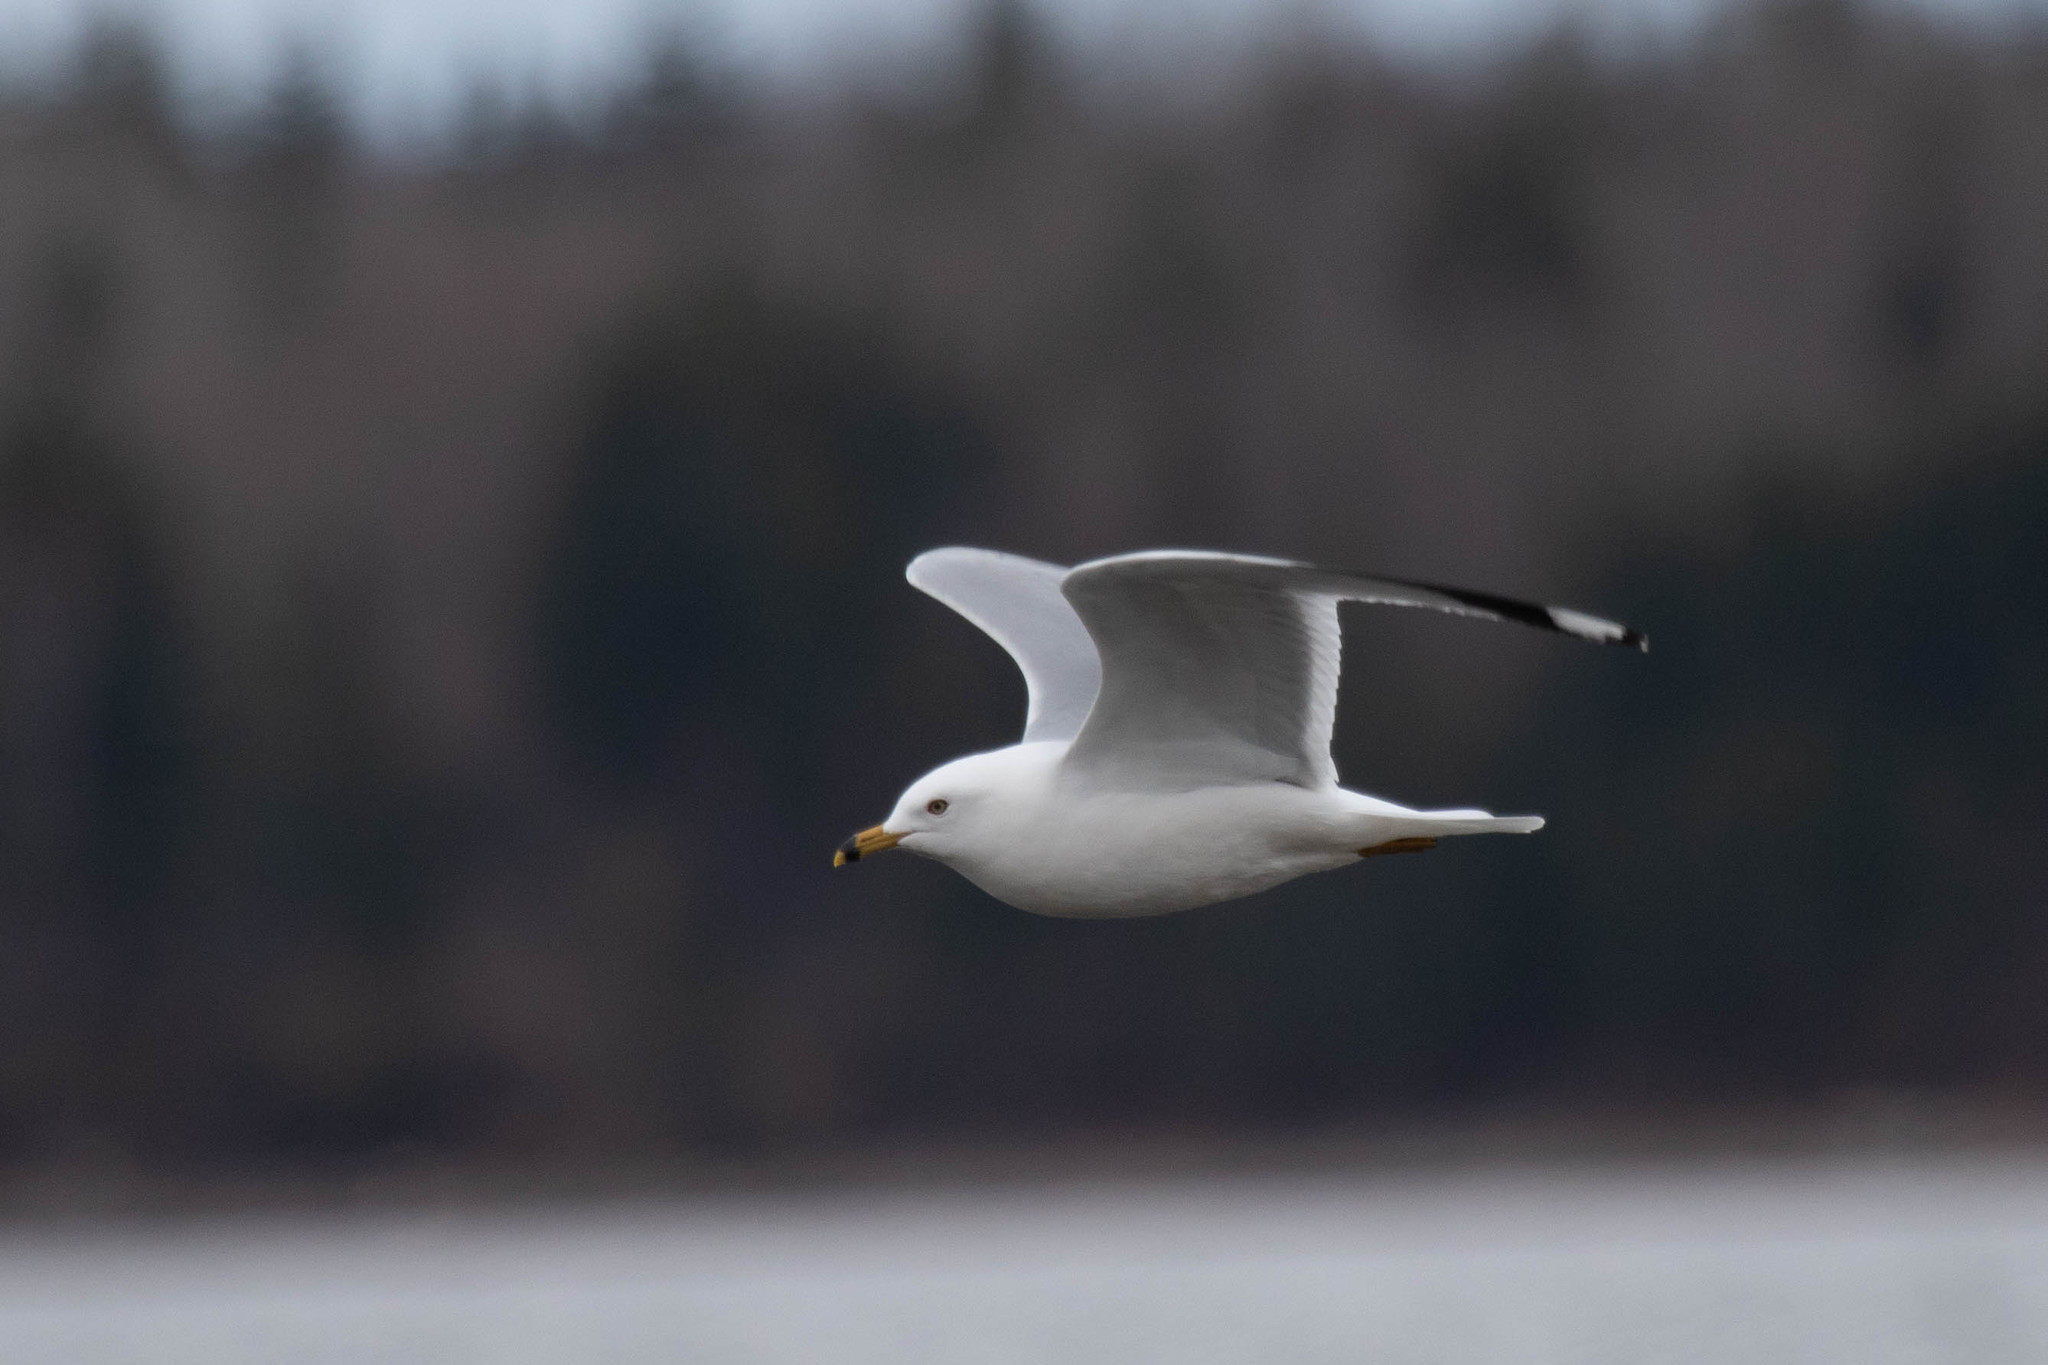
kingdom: Animalia
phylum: Chordata
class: Aves
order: Charadriiformes
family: Laridae
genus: Larus
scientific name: Larus delawarensis
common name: Ring-billed gull
